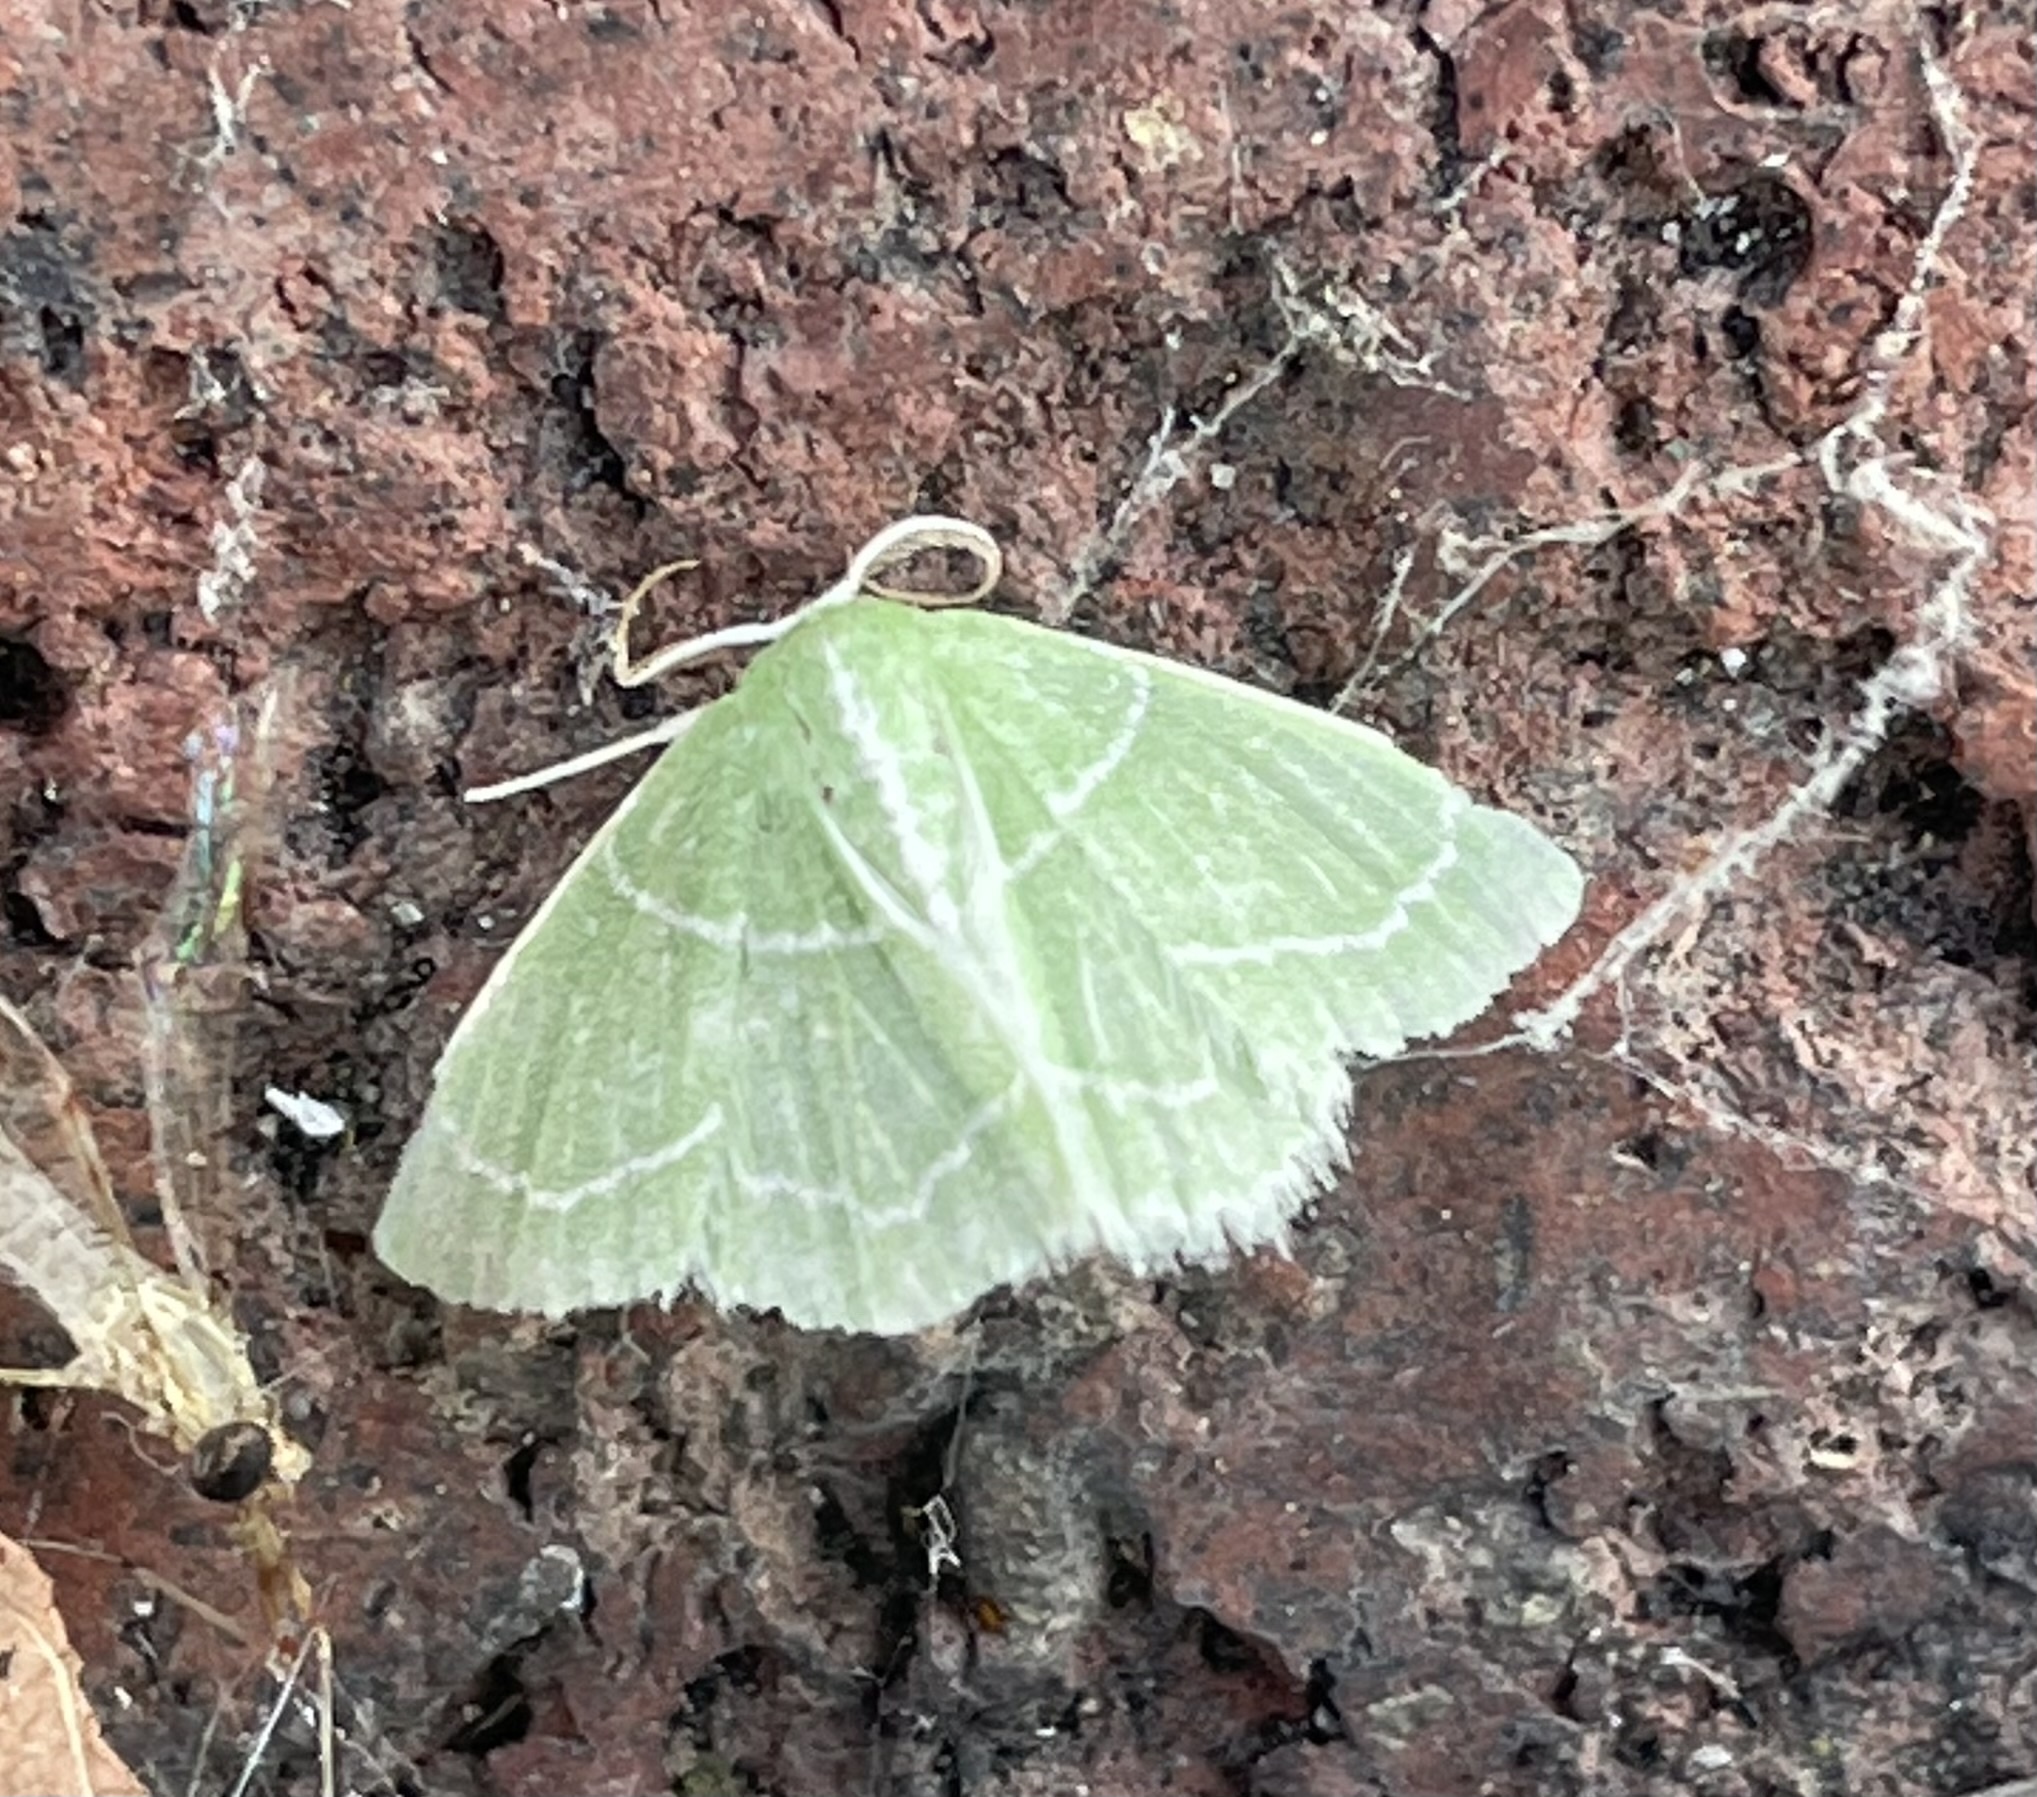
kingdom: Animalia
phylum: Arthropoda
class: Insecta
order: Lepidoptera
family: Geometridae
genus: Synchlora
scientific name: Synchlora aerata
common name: Wavy-lined emerald
